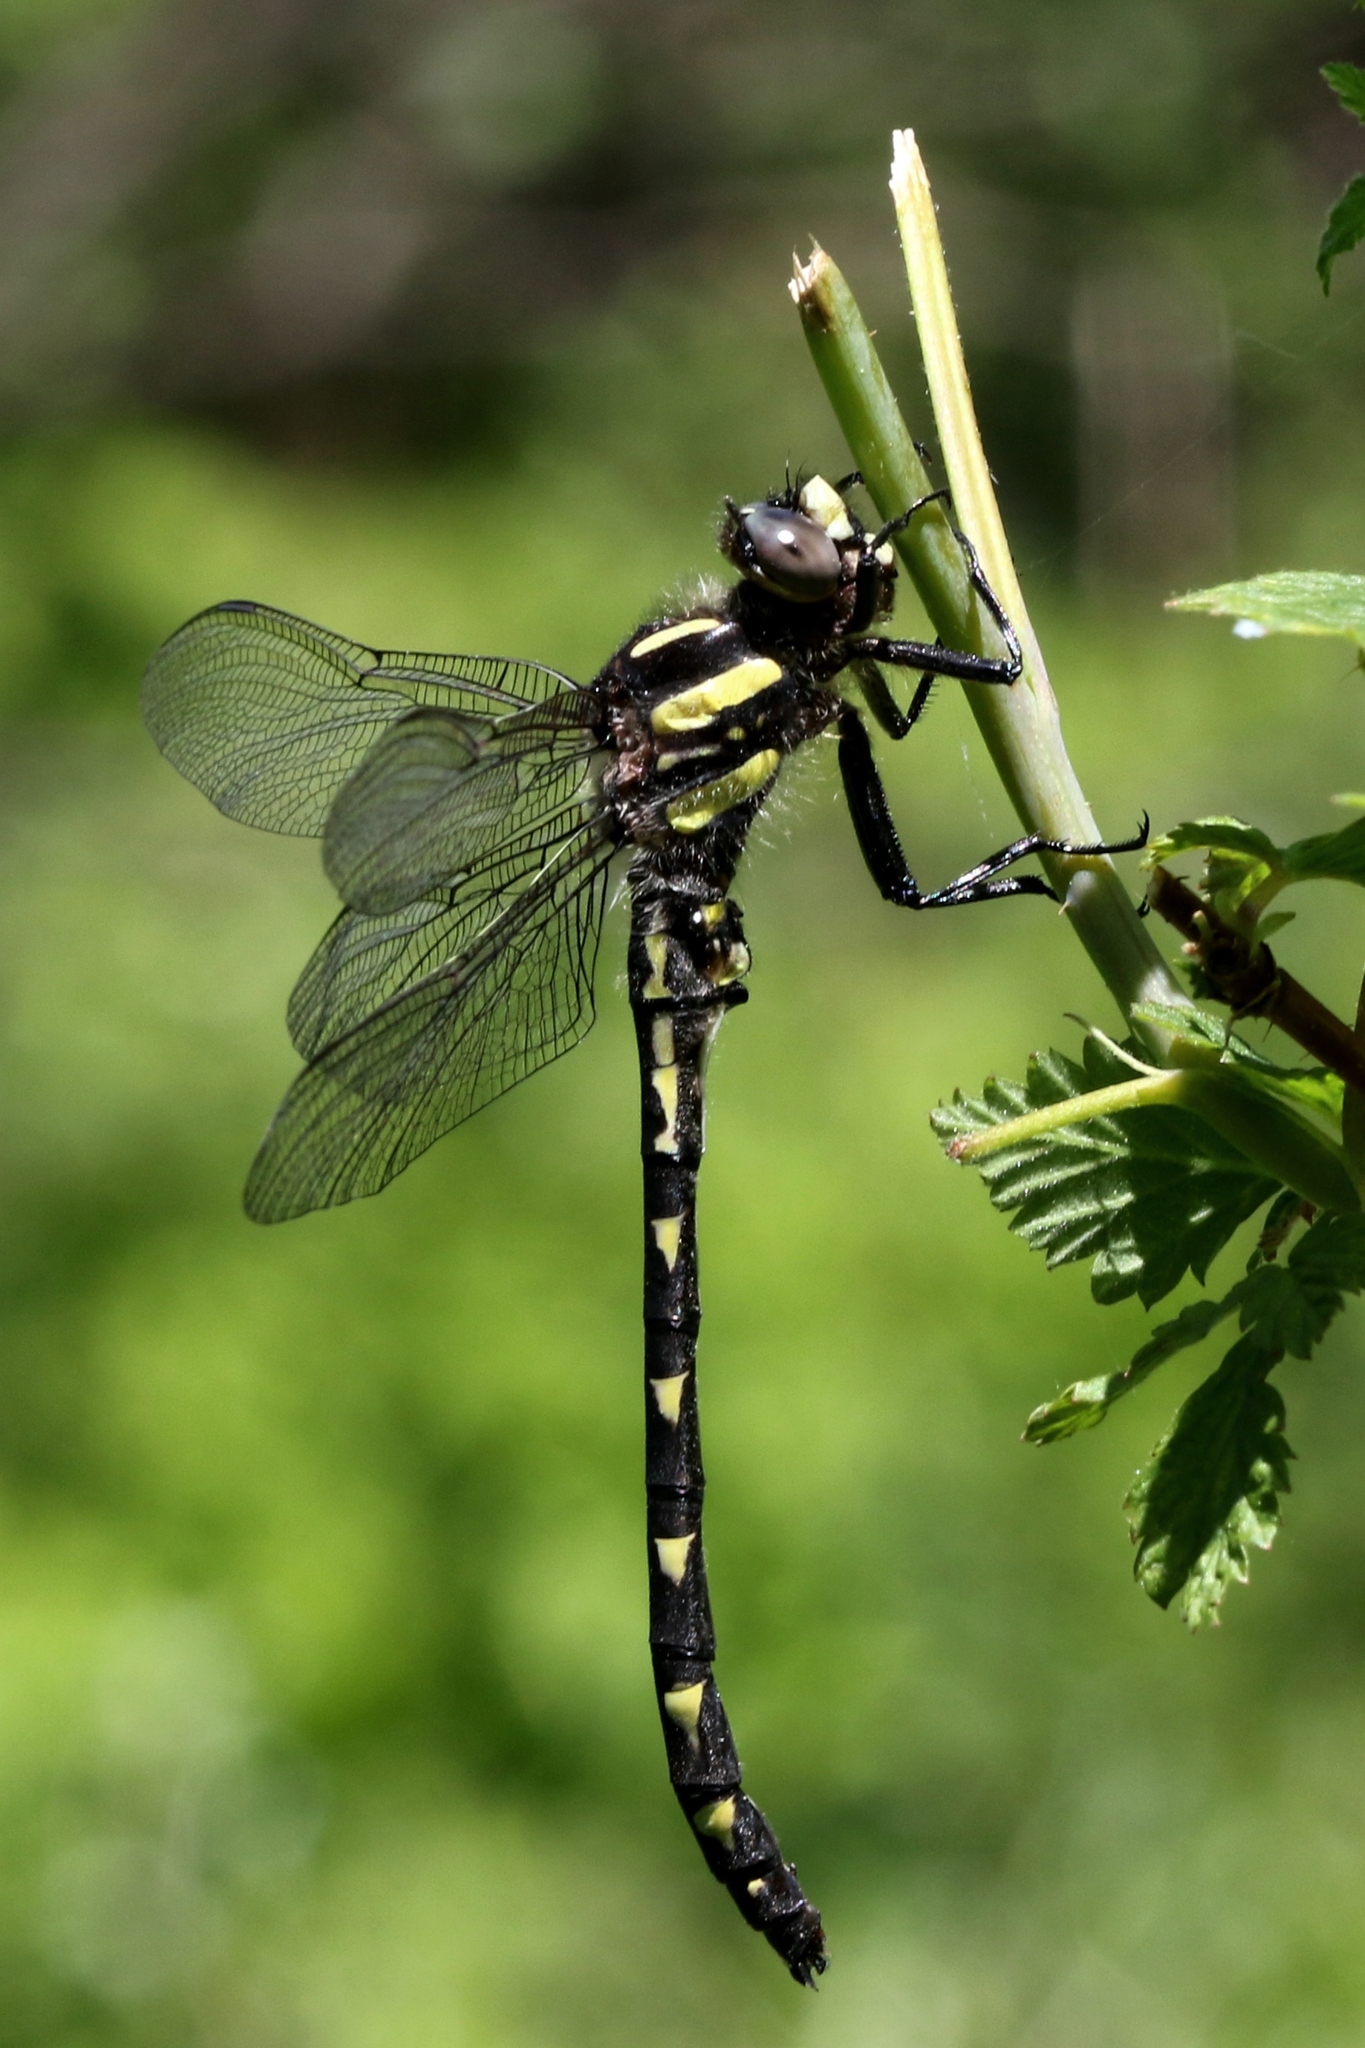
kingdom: Animalia
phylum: Arthropoda
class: Insecta
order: Odonata
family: Cordulegastridae
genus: Cordulegaster
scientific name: Cordulegaster diastatops
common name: Delta-spotted spiketail
